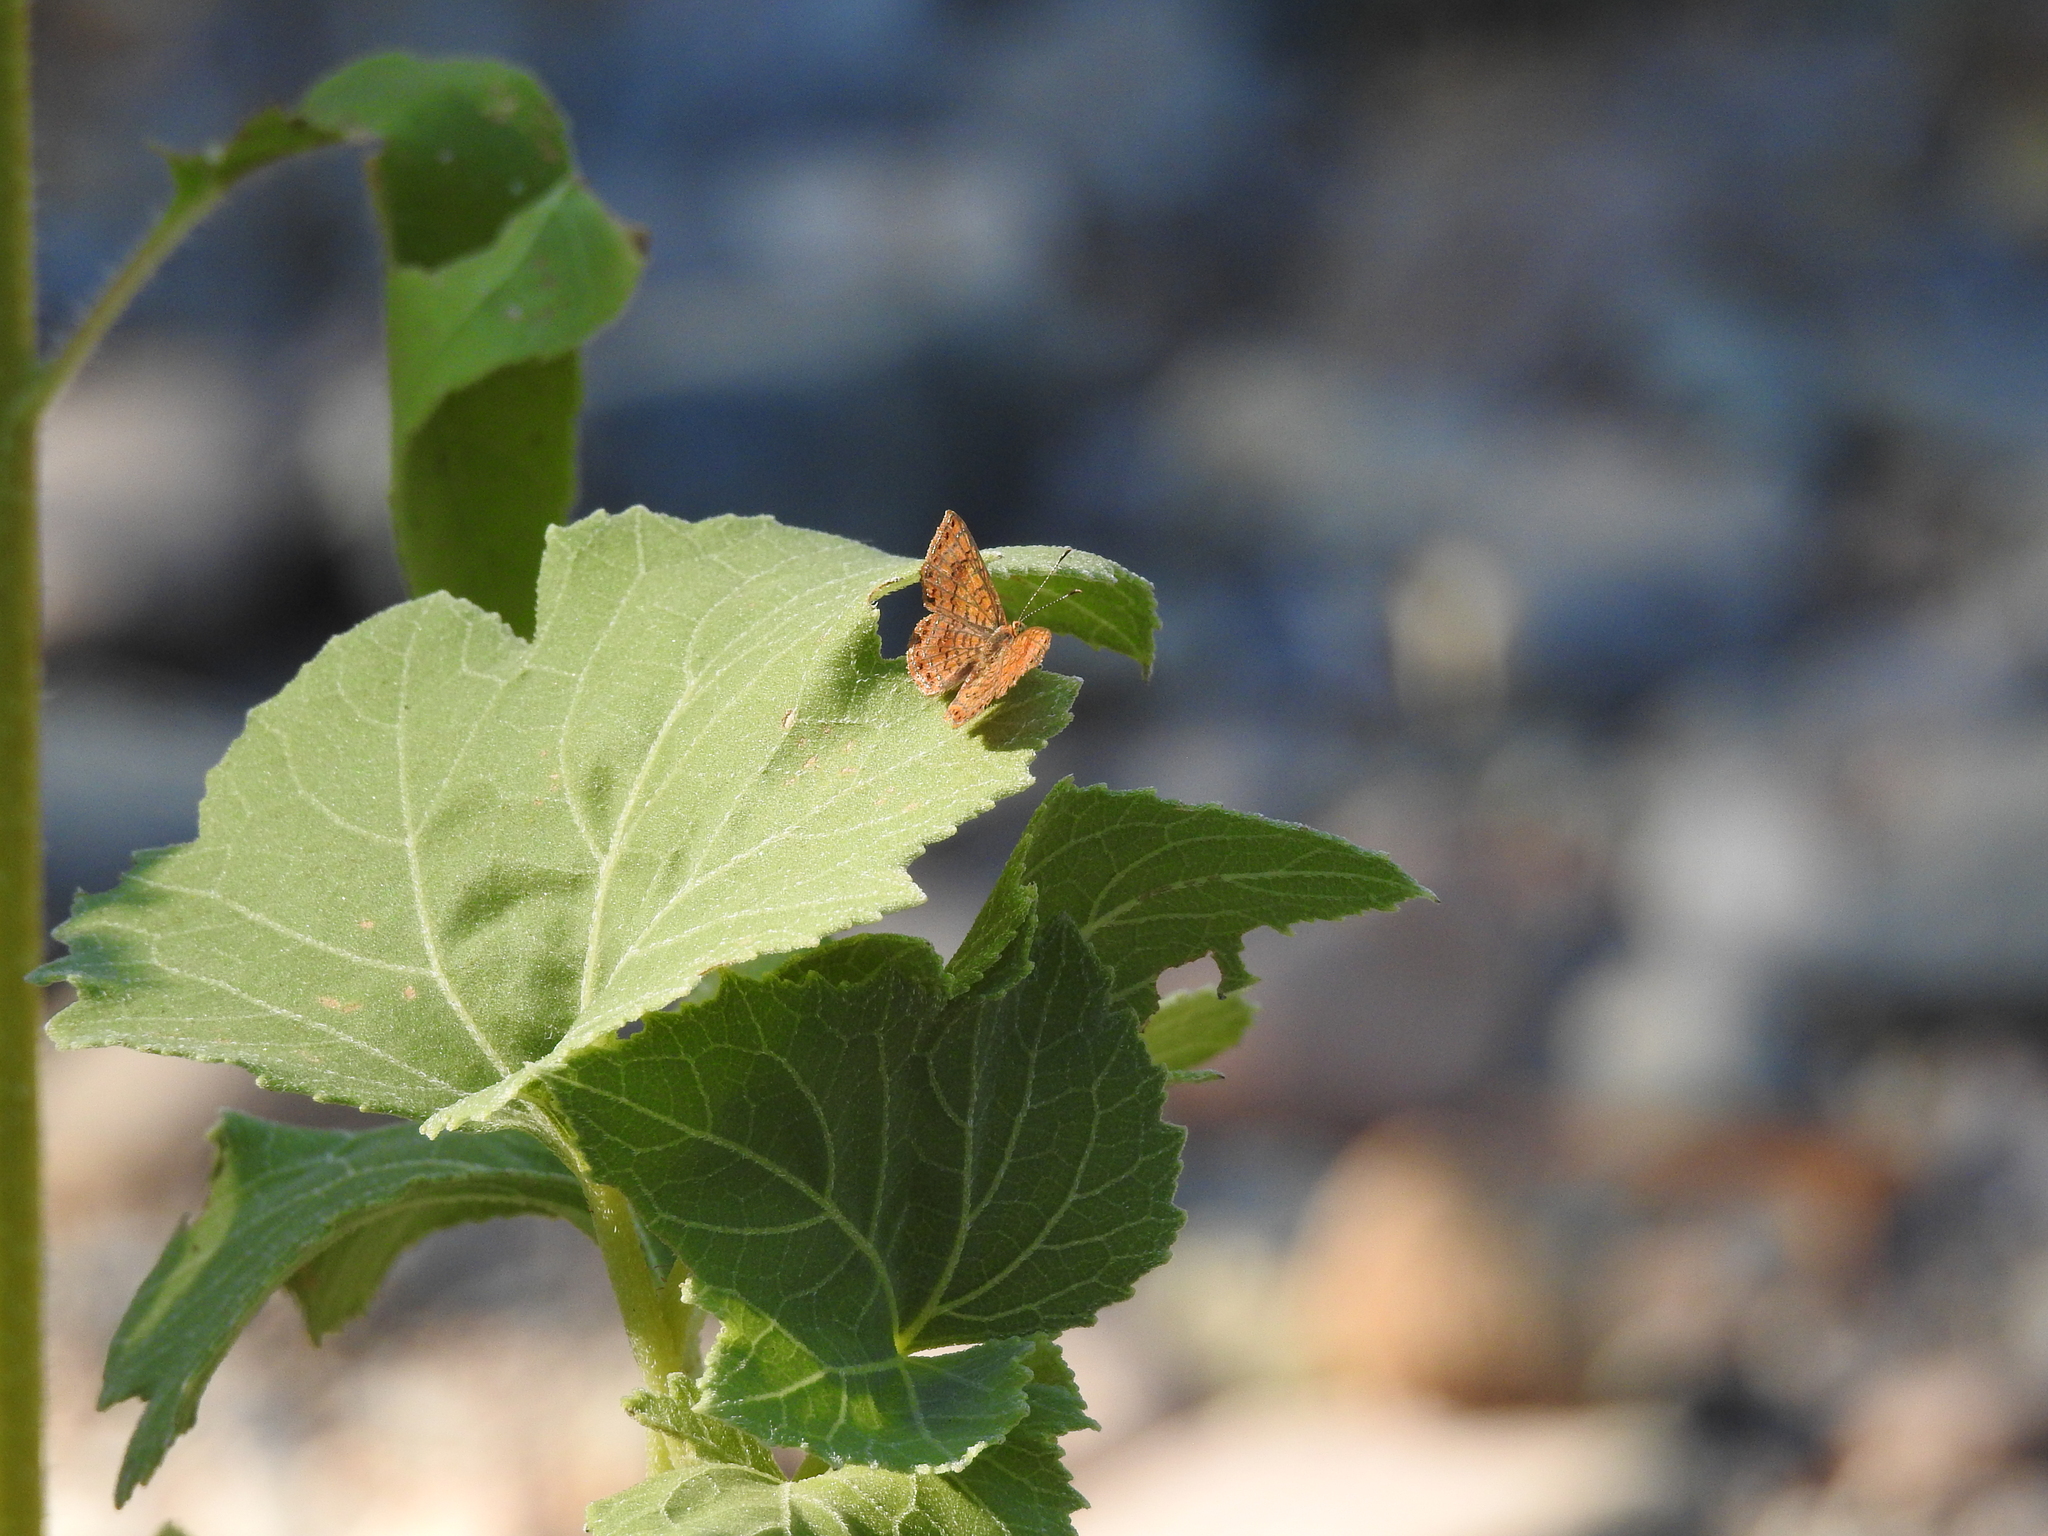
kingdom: Animalia
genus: Calephelis
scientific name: Calephelis nemesis
